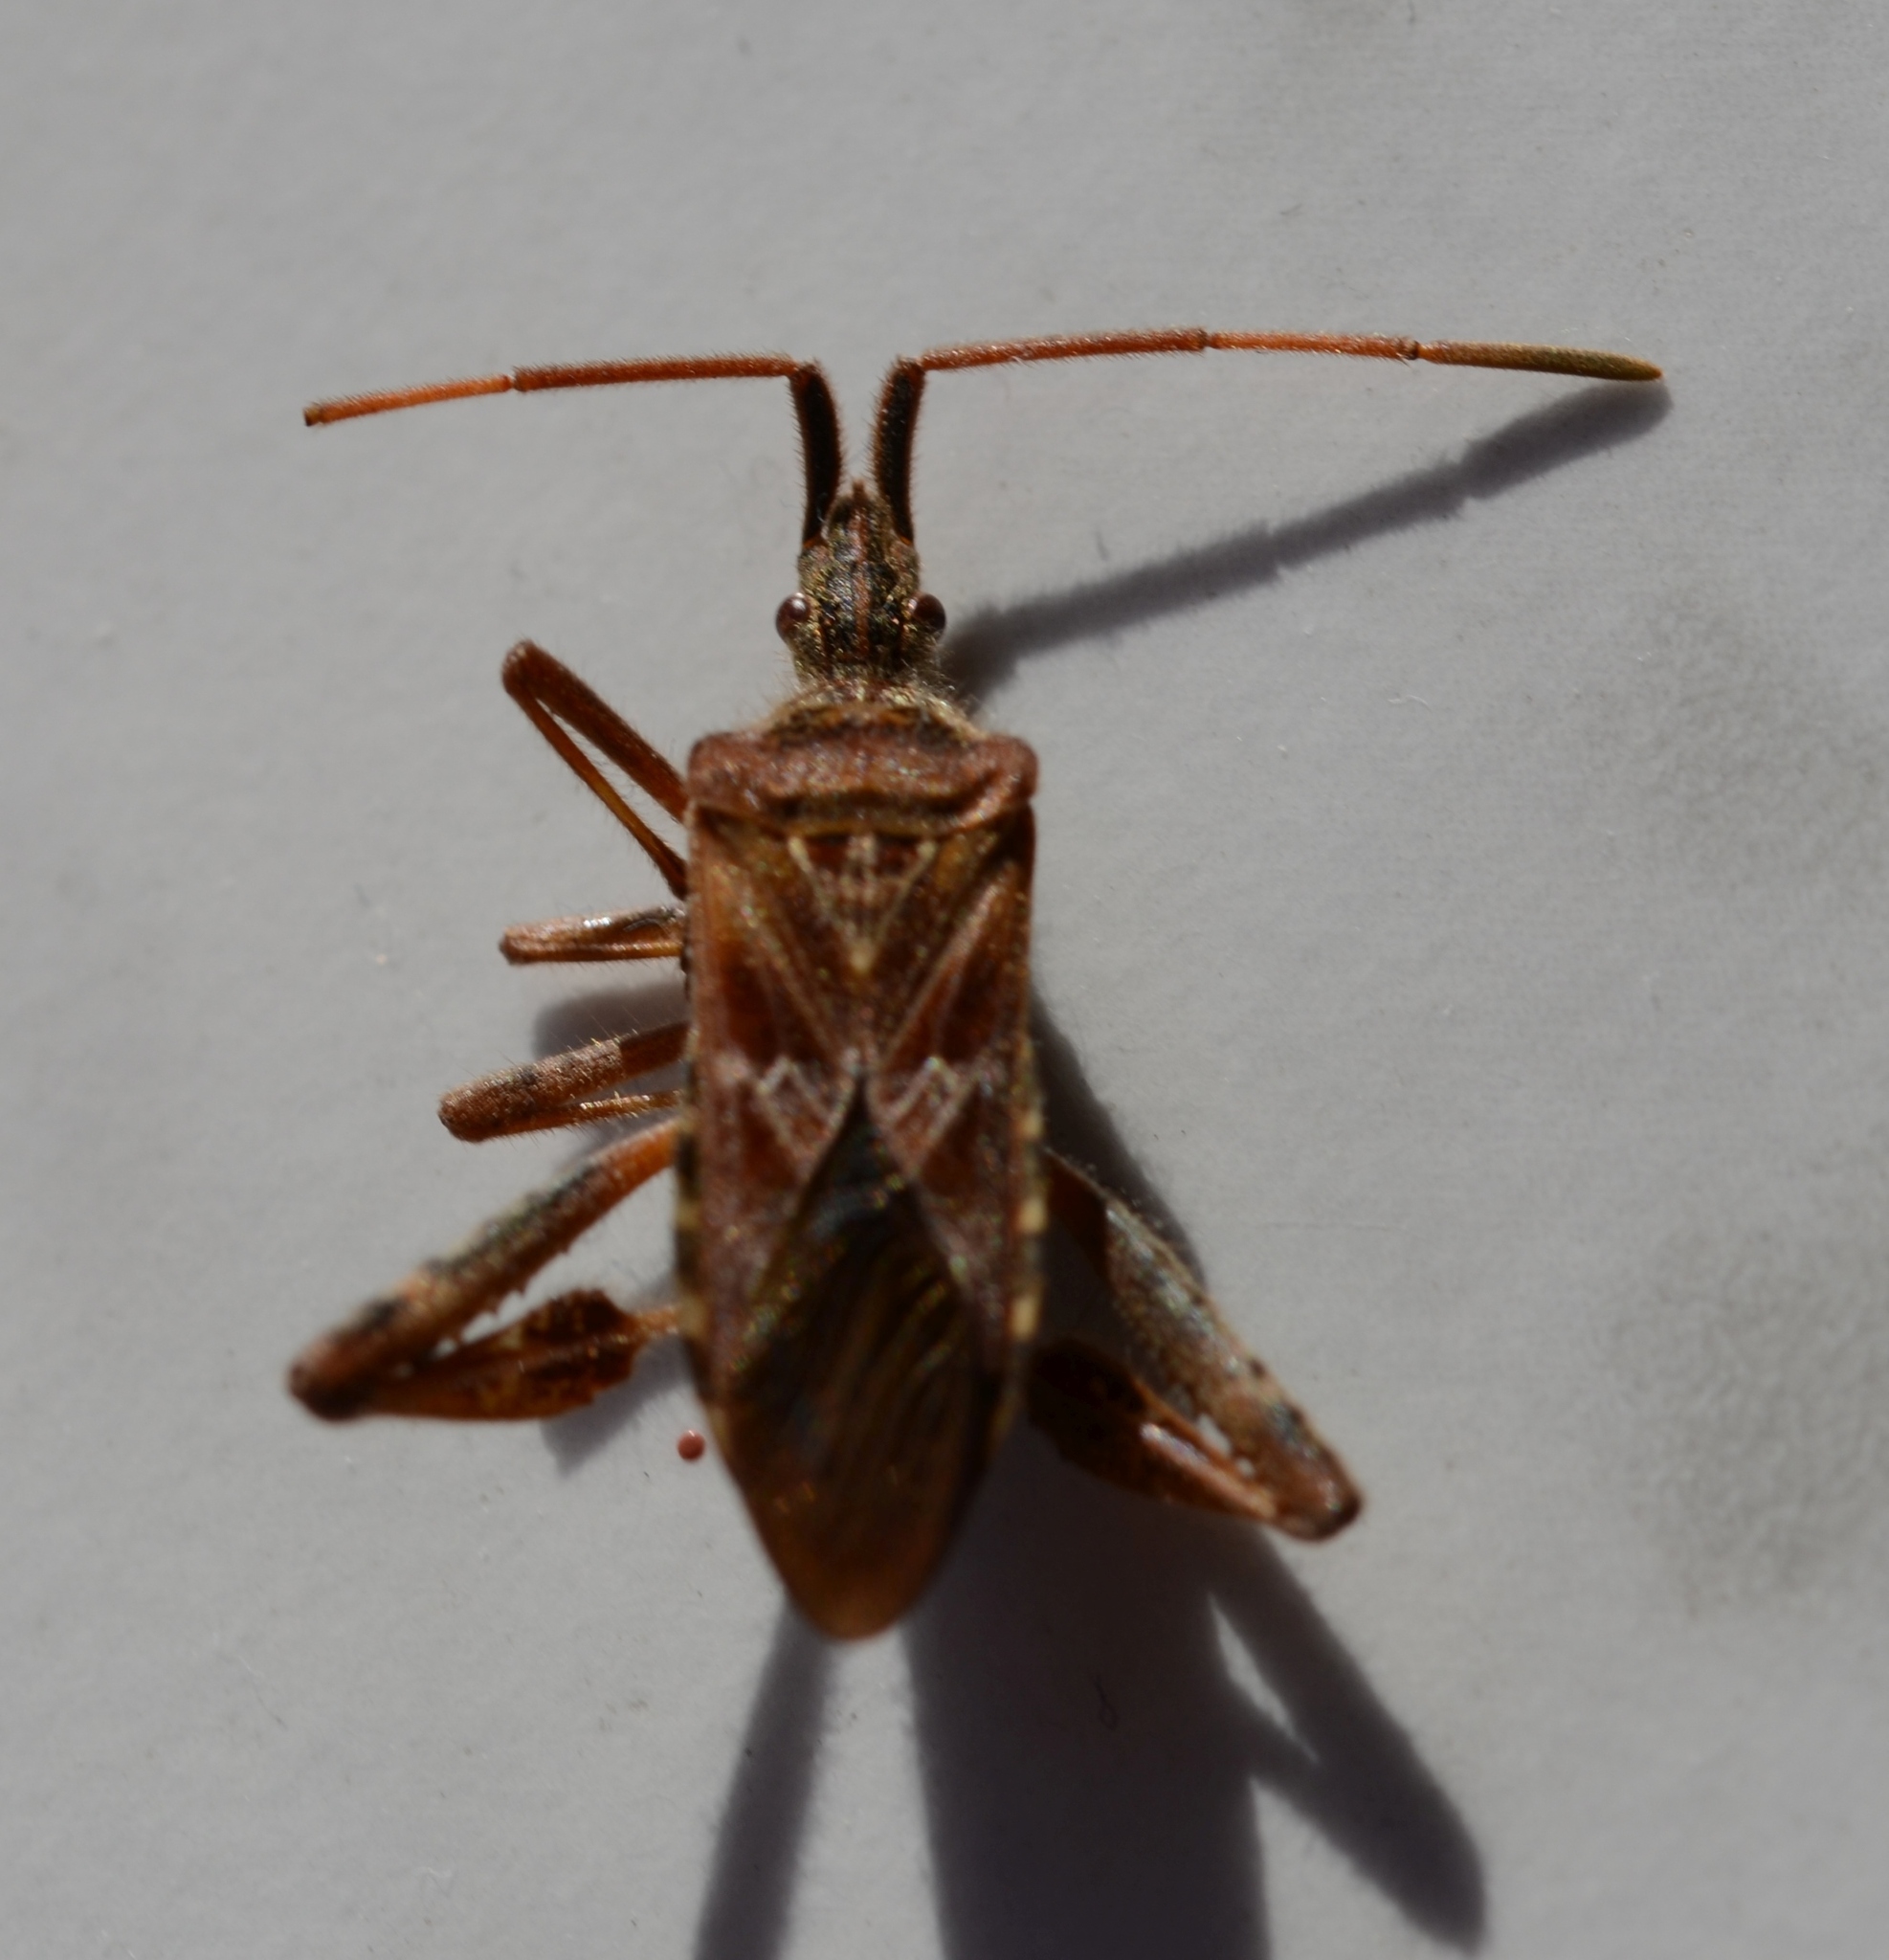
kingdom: Animalia
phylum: Arthropoda
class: Insecta
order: Hemiptera
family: Coreidae
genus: Leptoglossus
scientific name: Leptoglossus occidentalis
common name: Western conifer-seed bug
